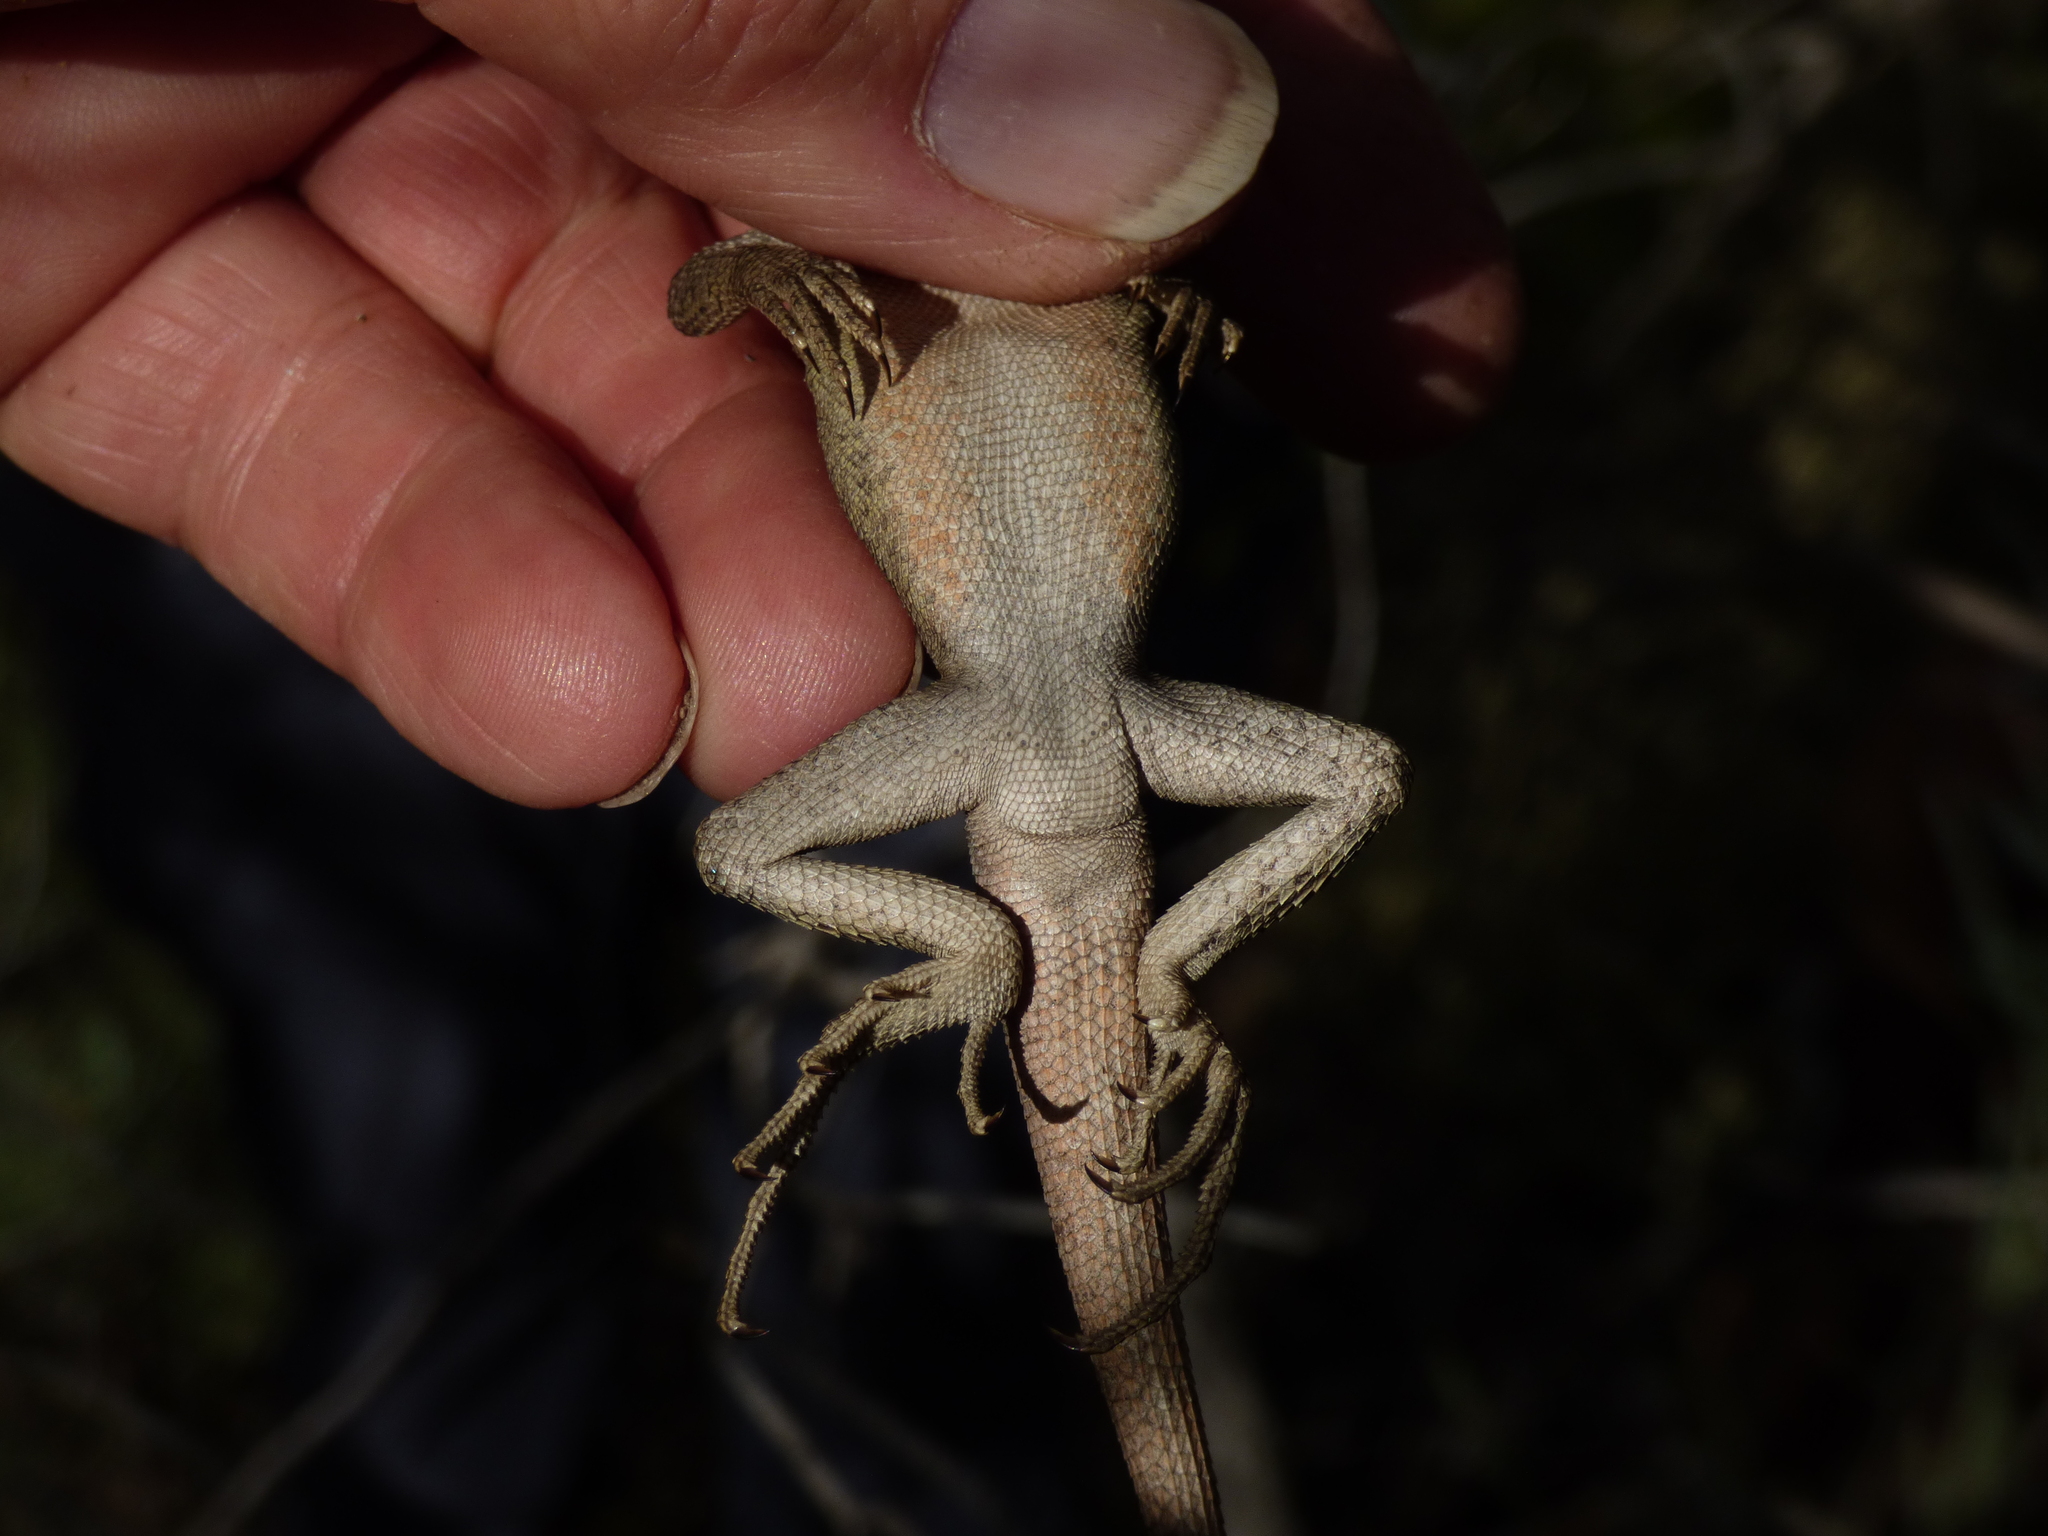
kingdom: Animalia
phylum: Chordata
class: Squamata
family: Agamidae
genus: Diporiphora
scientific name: Diporiphora nobbi
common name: Nobbi
